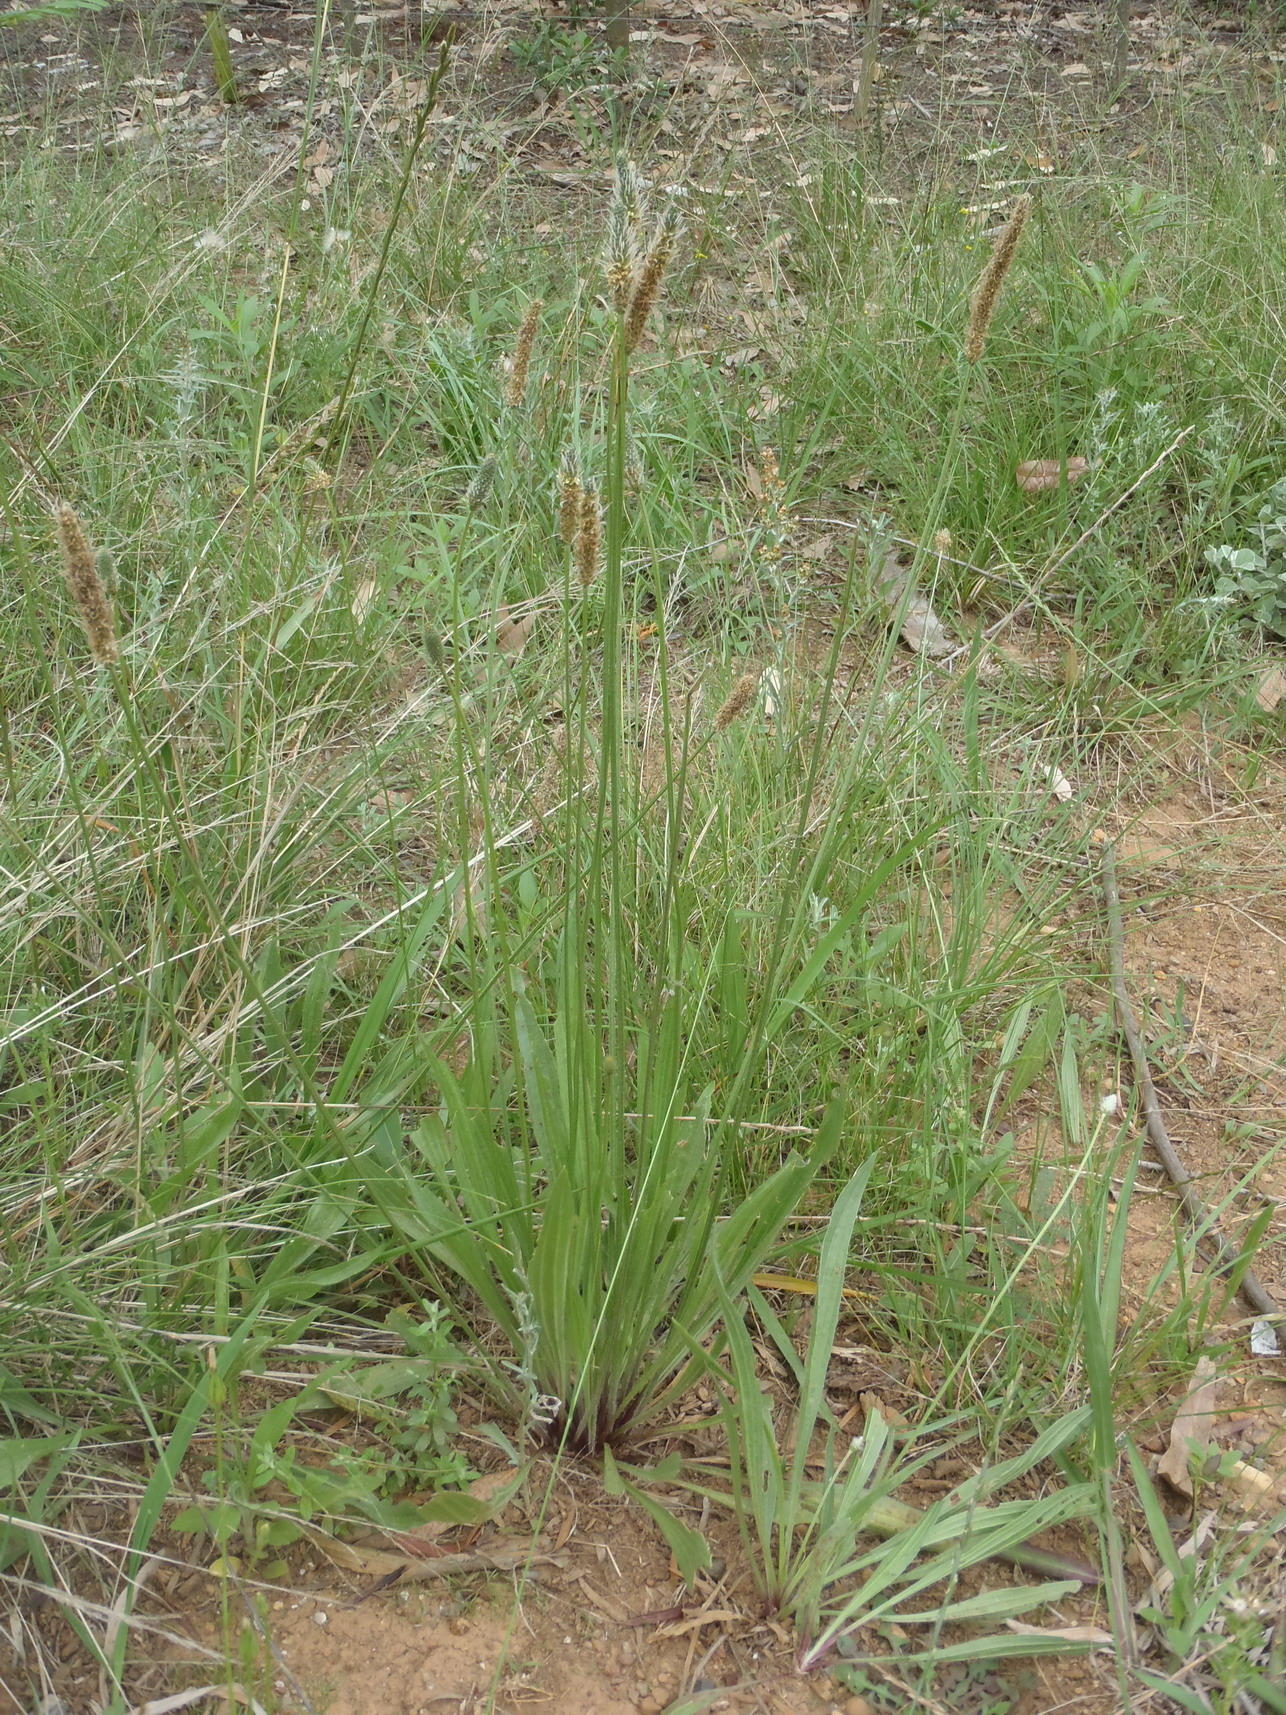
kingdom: Plantae
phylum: Tracheophyta
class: Magnoliopsida
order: Lamiales
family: Plantaginaceae
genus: Plantago
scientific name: Plantago lanceolata
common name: Ribwort plantain
